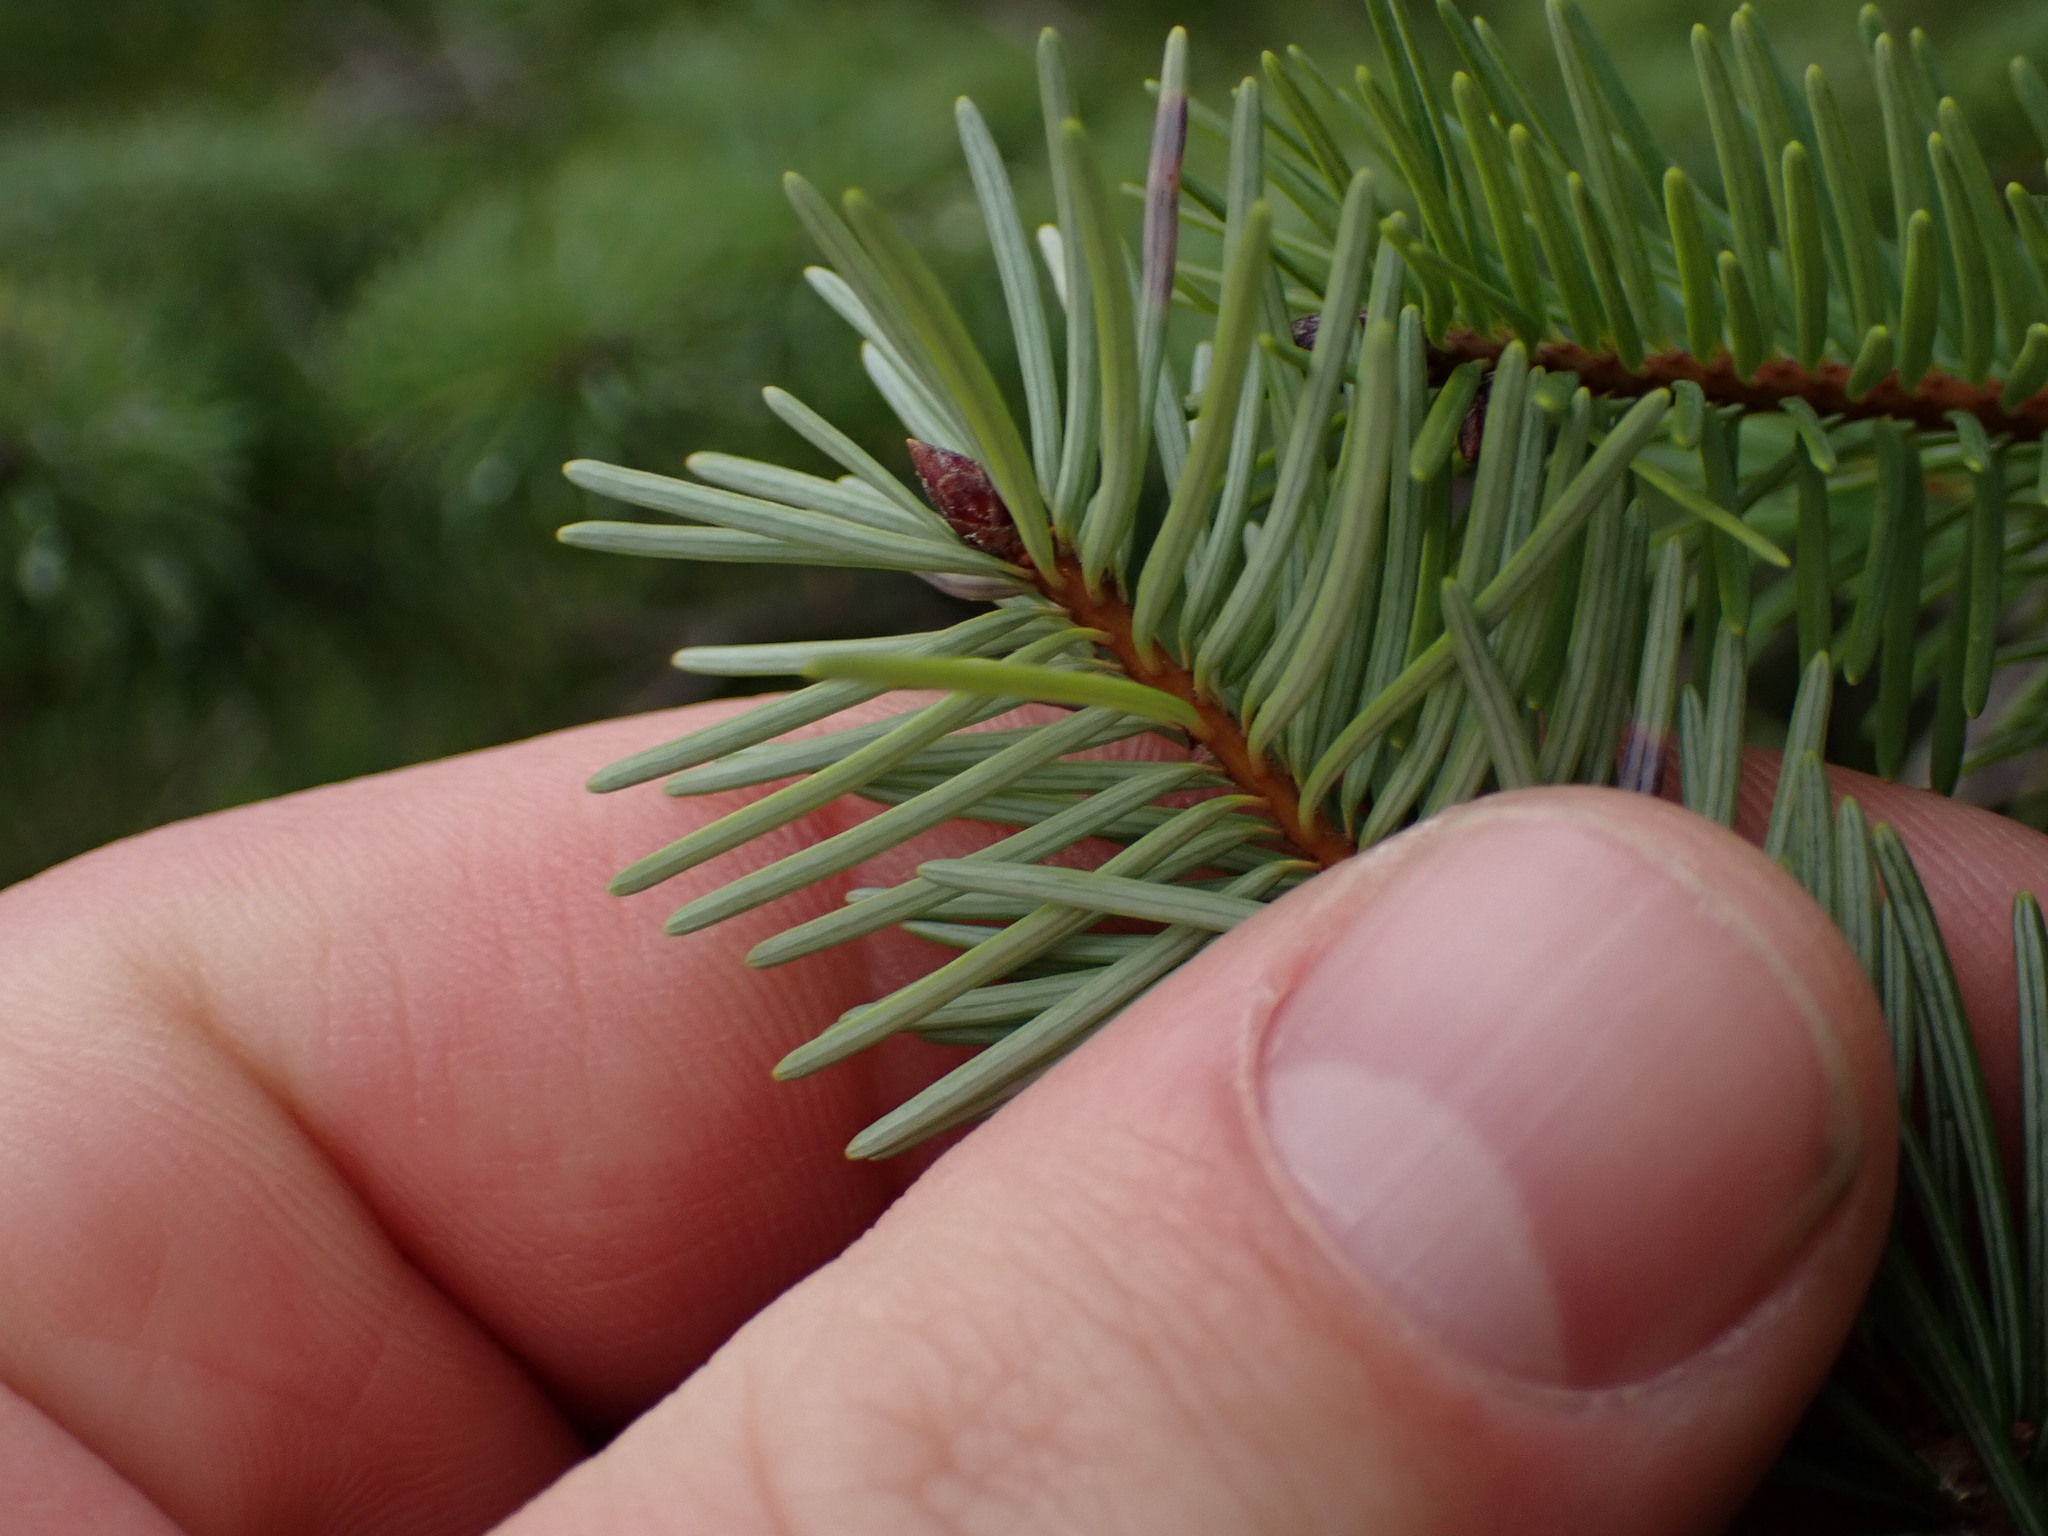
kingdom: Plantae
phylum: Tracheophyta
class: Pinopsida
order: Pinales
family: Pinaceae
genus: Pseudotsuga
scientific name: Pseudotsuga menziesii
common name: Douglas fir
